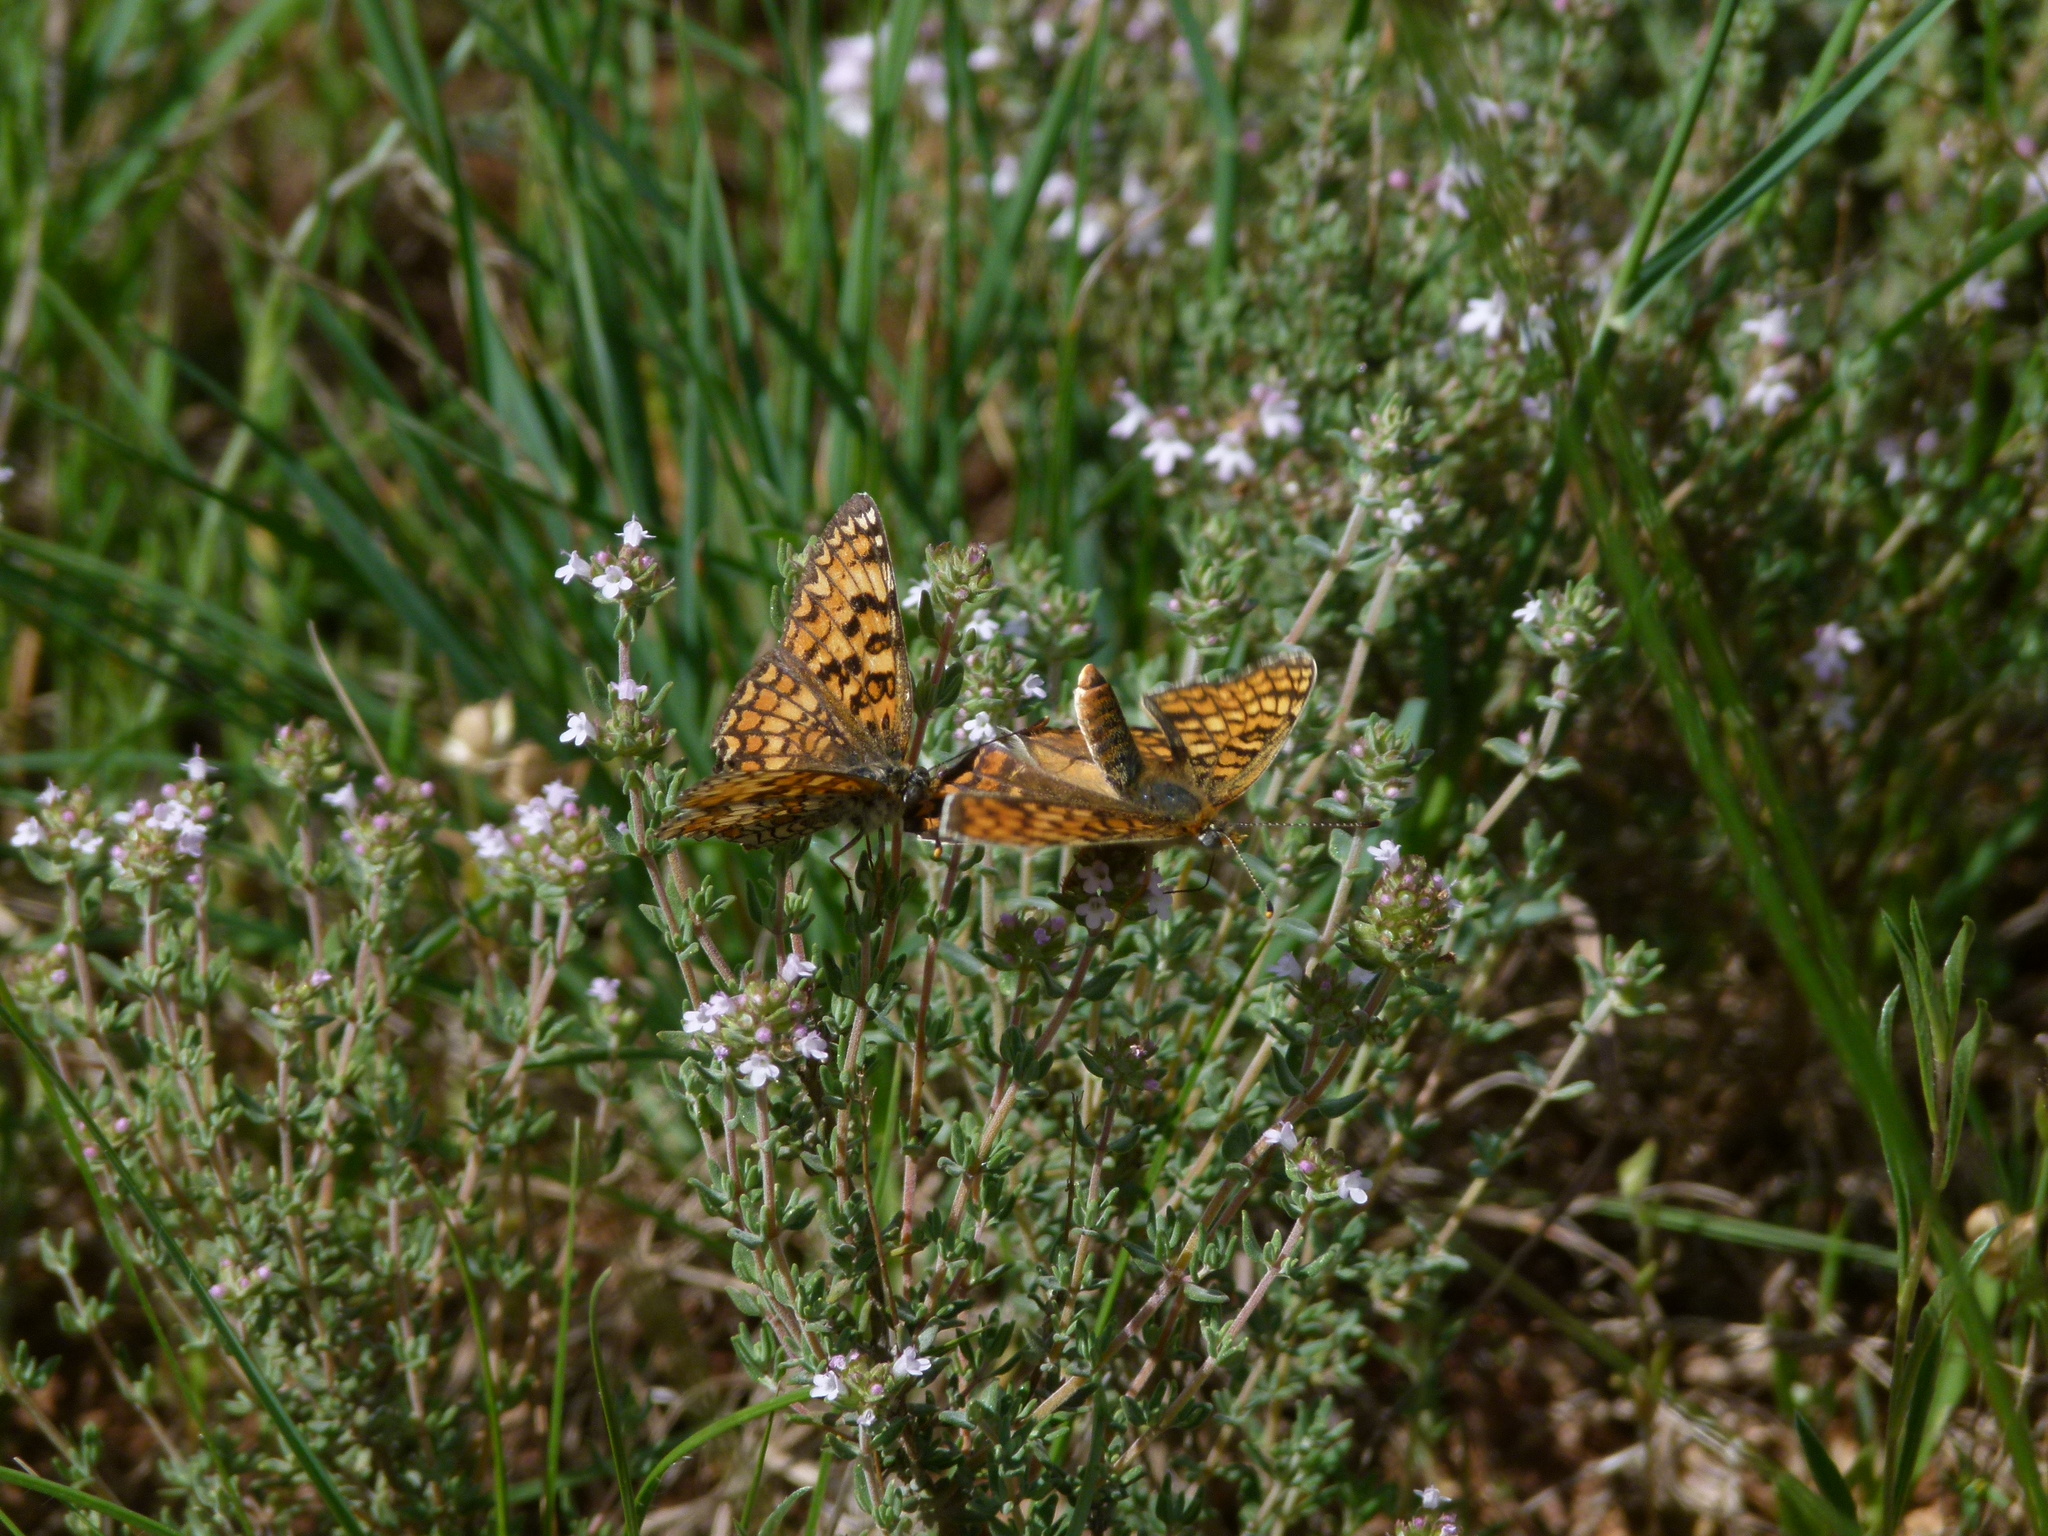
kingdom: Animalia
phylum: Arthropoda
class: Insecta
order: Lepidoptera
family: Nymphalidae
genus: Melitaea
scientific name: Melitaea phoebe
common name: Knapweed fritillary
